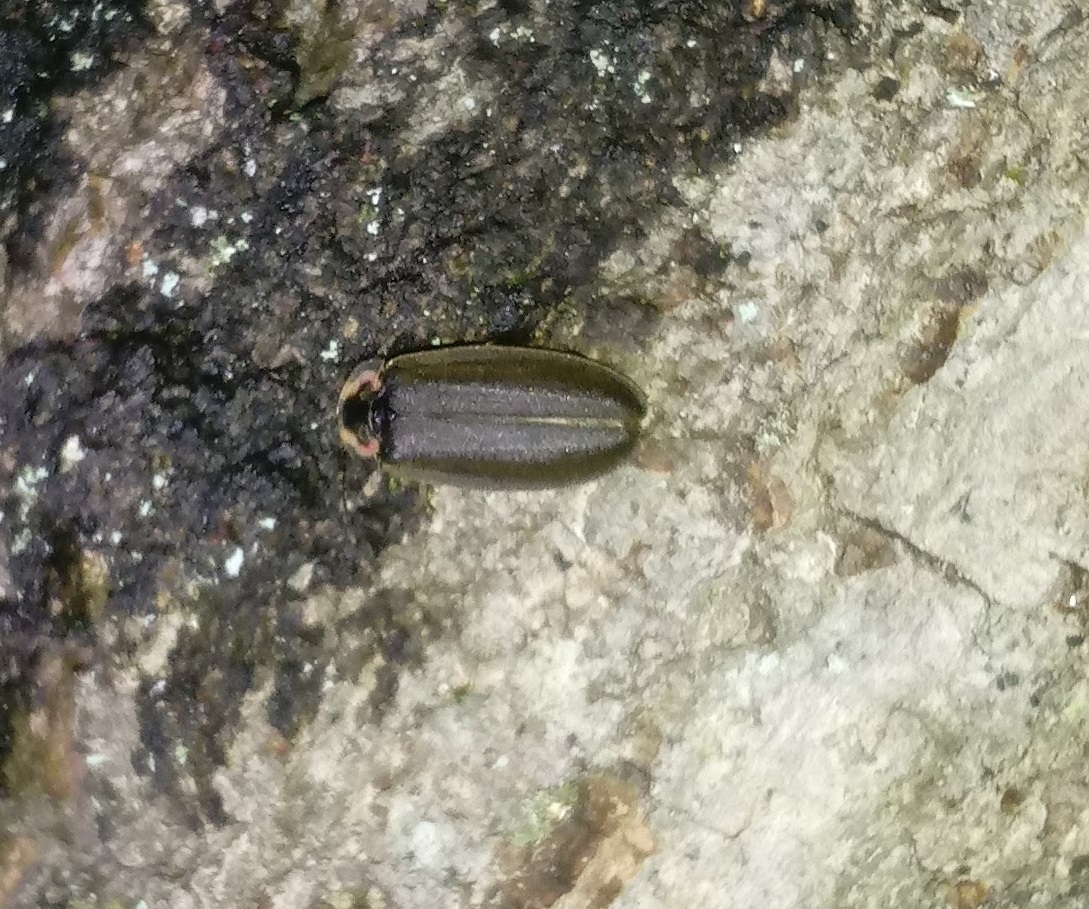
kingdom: Animalia
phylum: Arthropoda
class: Insecta
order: Coleoptera
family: Lampyridae
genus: Photinus
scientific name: Photinus corrusca
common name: Winter firefly
